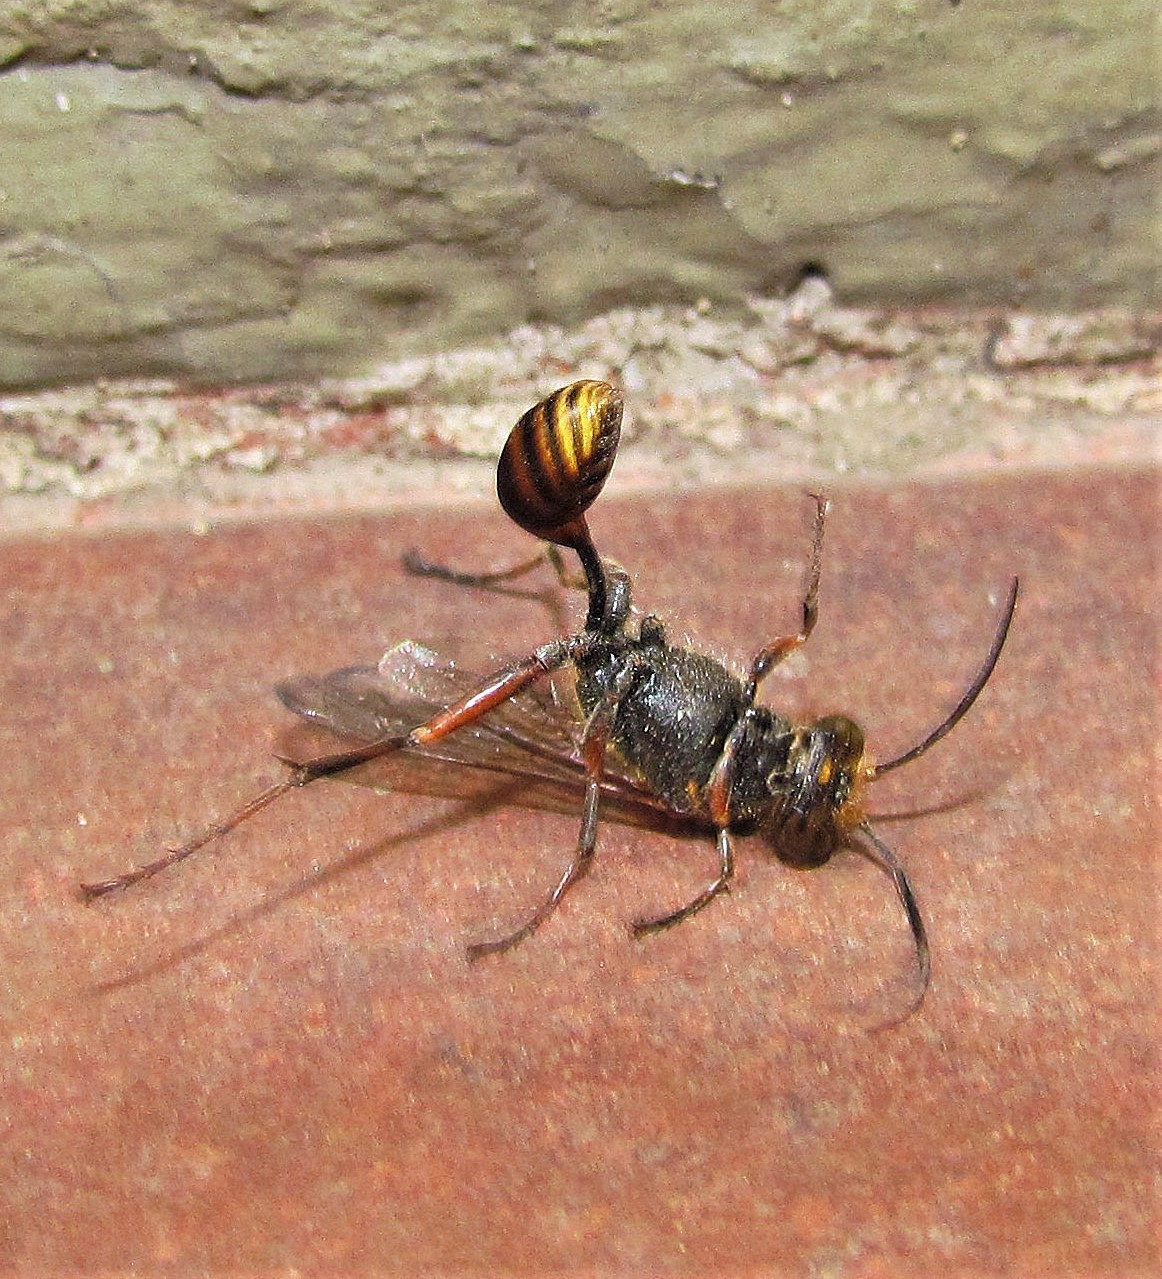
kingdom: Animalia
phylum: Arthropoda
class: Insecta
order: Hymenoptera
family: Sphecidae
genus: Sceliphron
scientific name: Sceliphron curvatum
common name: Pèlopèe
